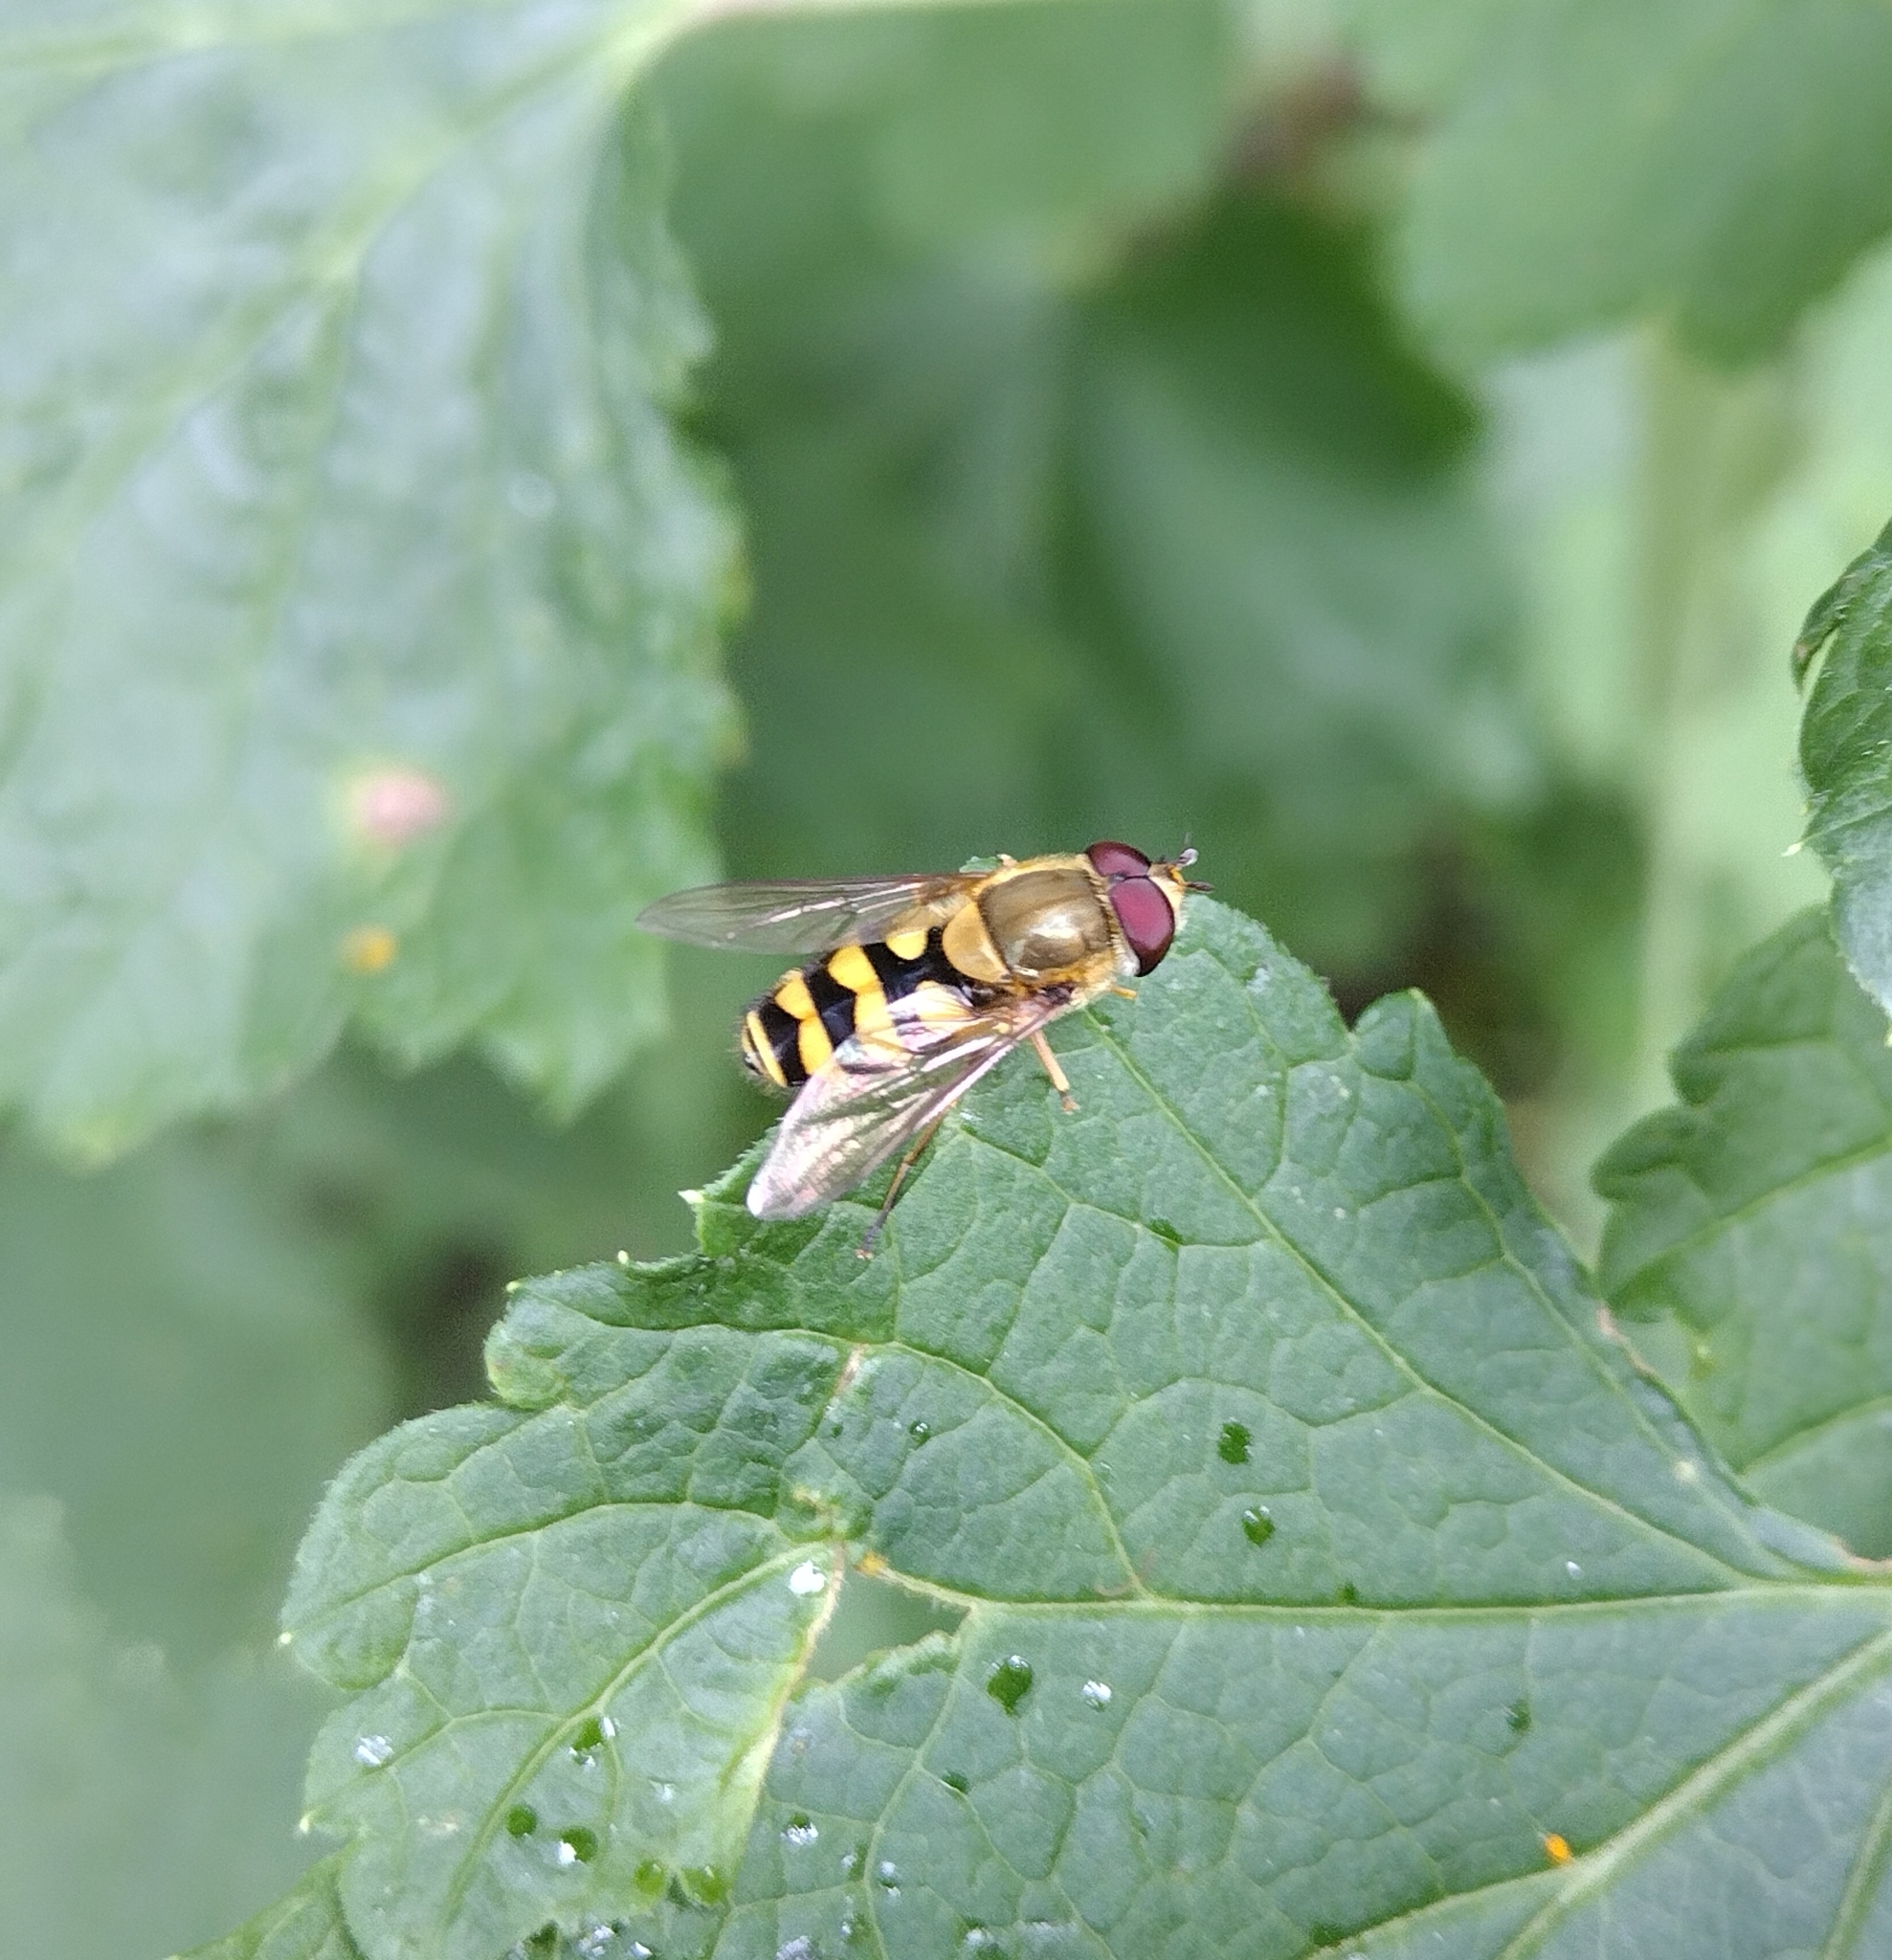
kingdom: Animalia
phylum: Arthropoda
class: Insecta
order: Diptera
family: Syrphidae
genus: Syrphus
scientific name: Syrphus
